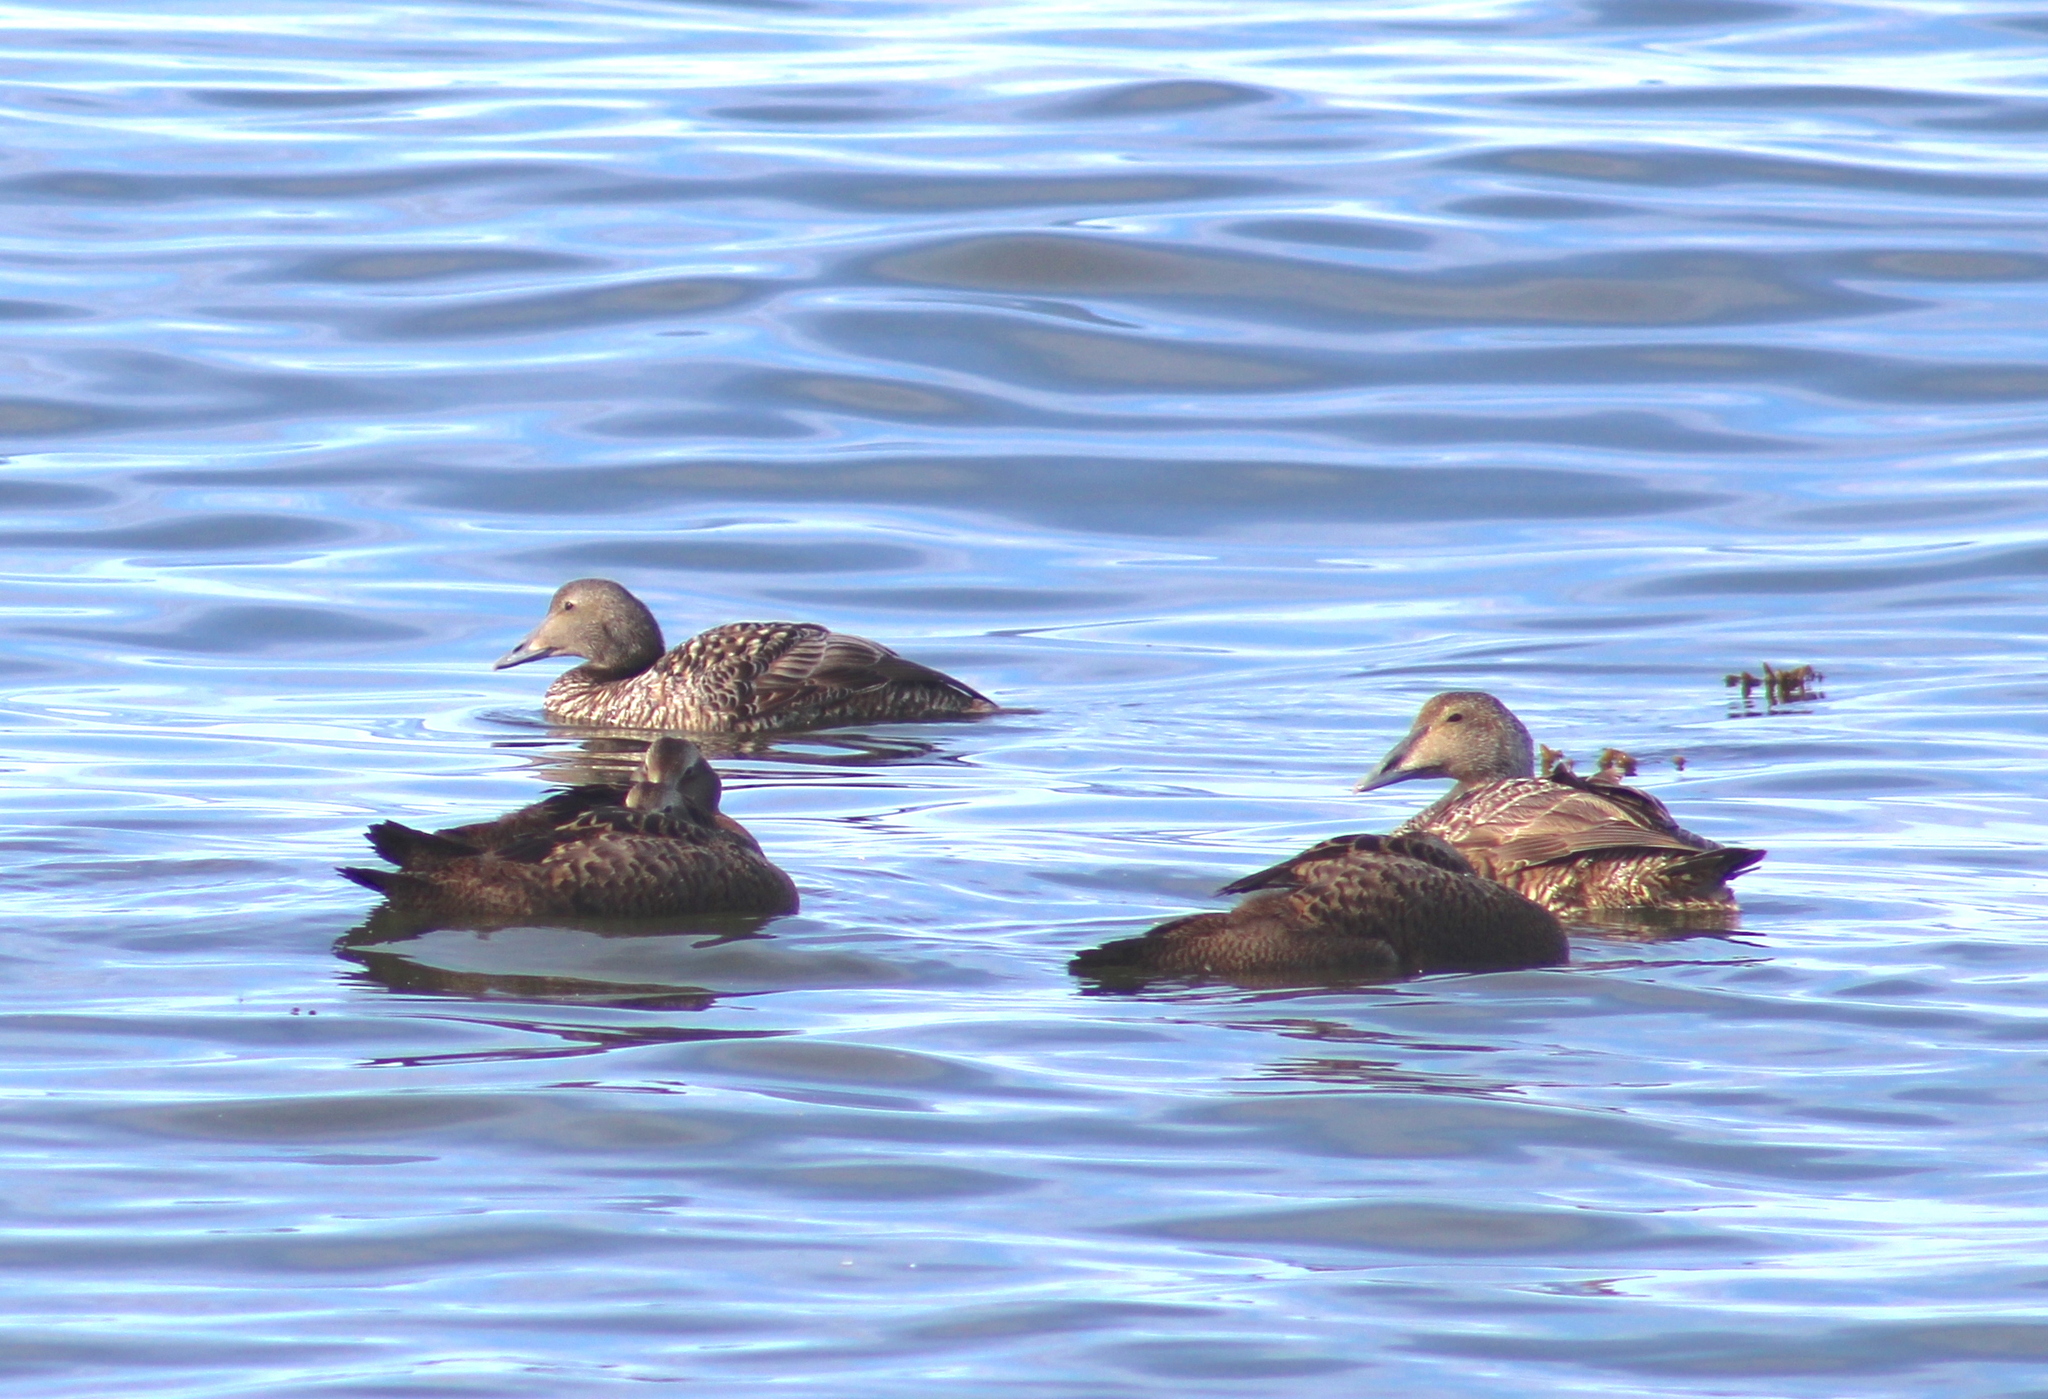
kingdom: Animalia
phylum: Chordata
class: Aves
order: Anseriformes
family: Anatidae
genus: Somateria
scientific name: Somateria mollissima
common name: Common eider
